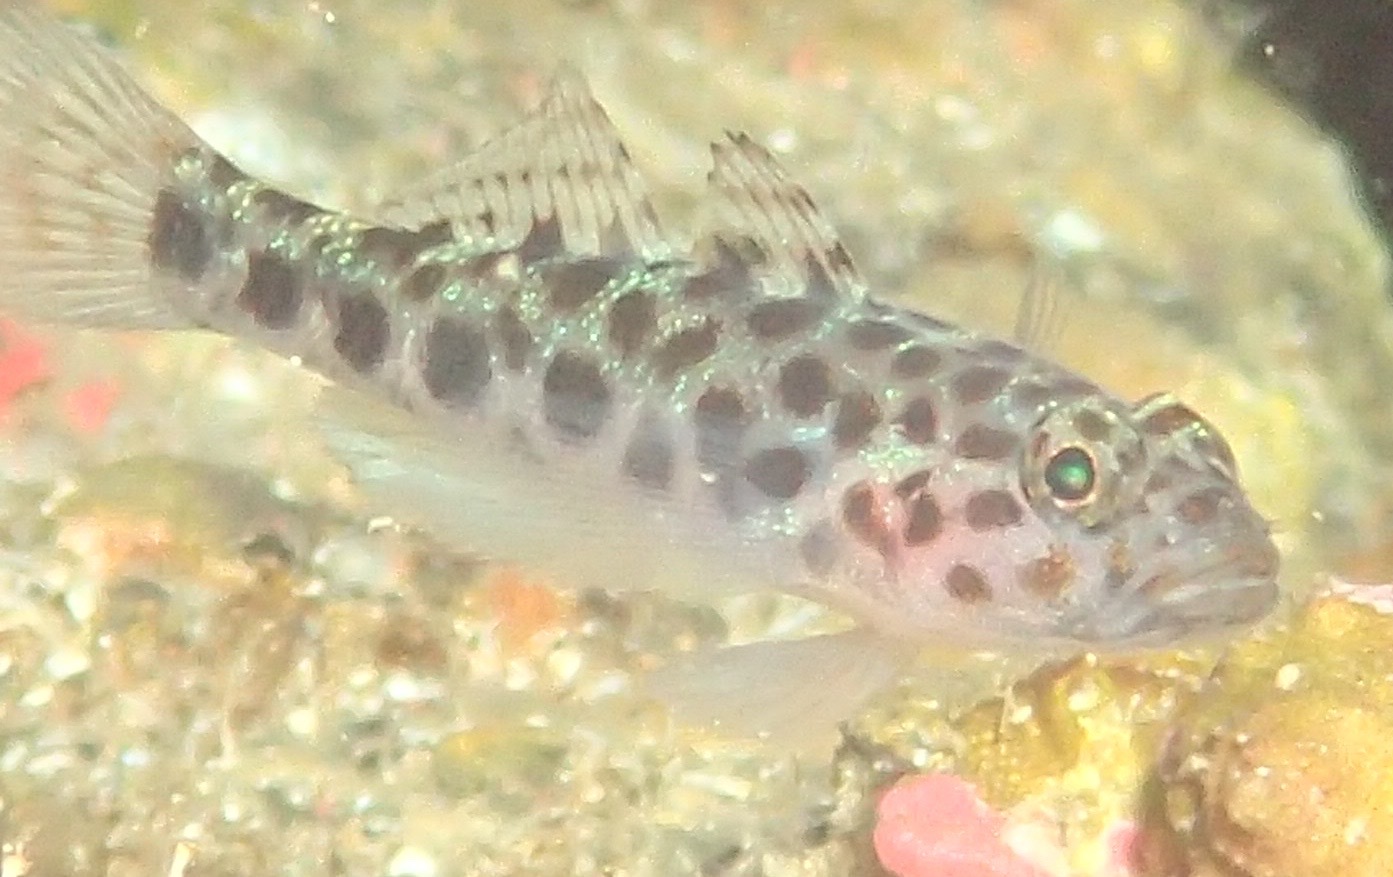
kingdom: Animalia
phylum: Chordata
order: Perciformes
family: Gobiidae
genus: Thorogobius
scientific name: Thorogobius ephippiatus
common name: Leopard-spotted goby
